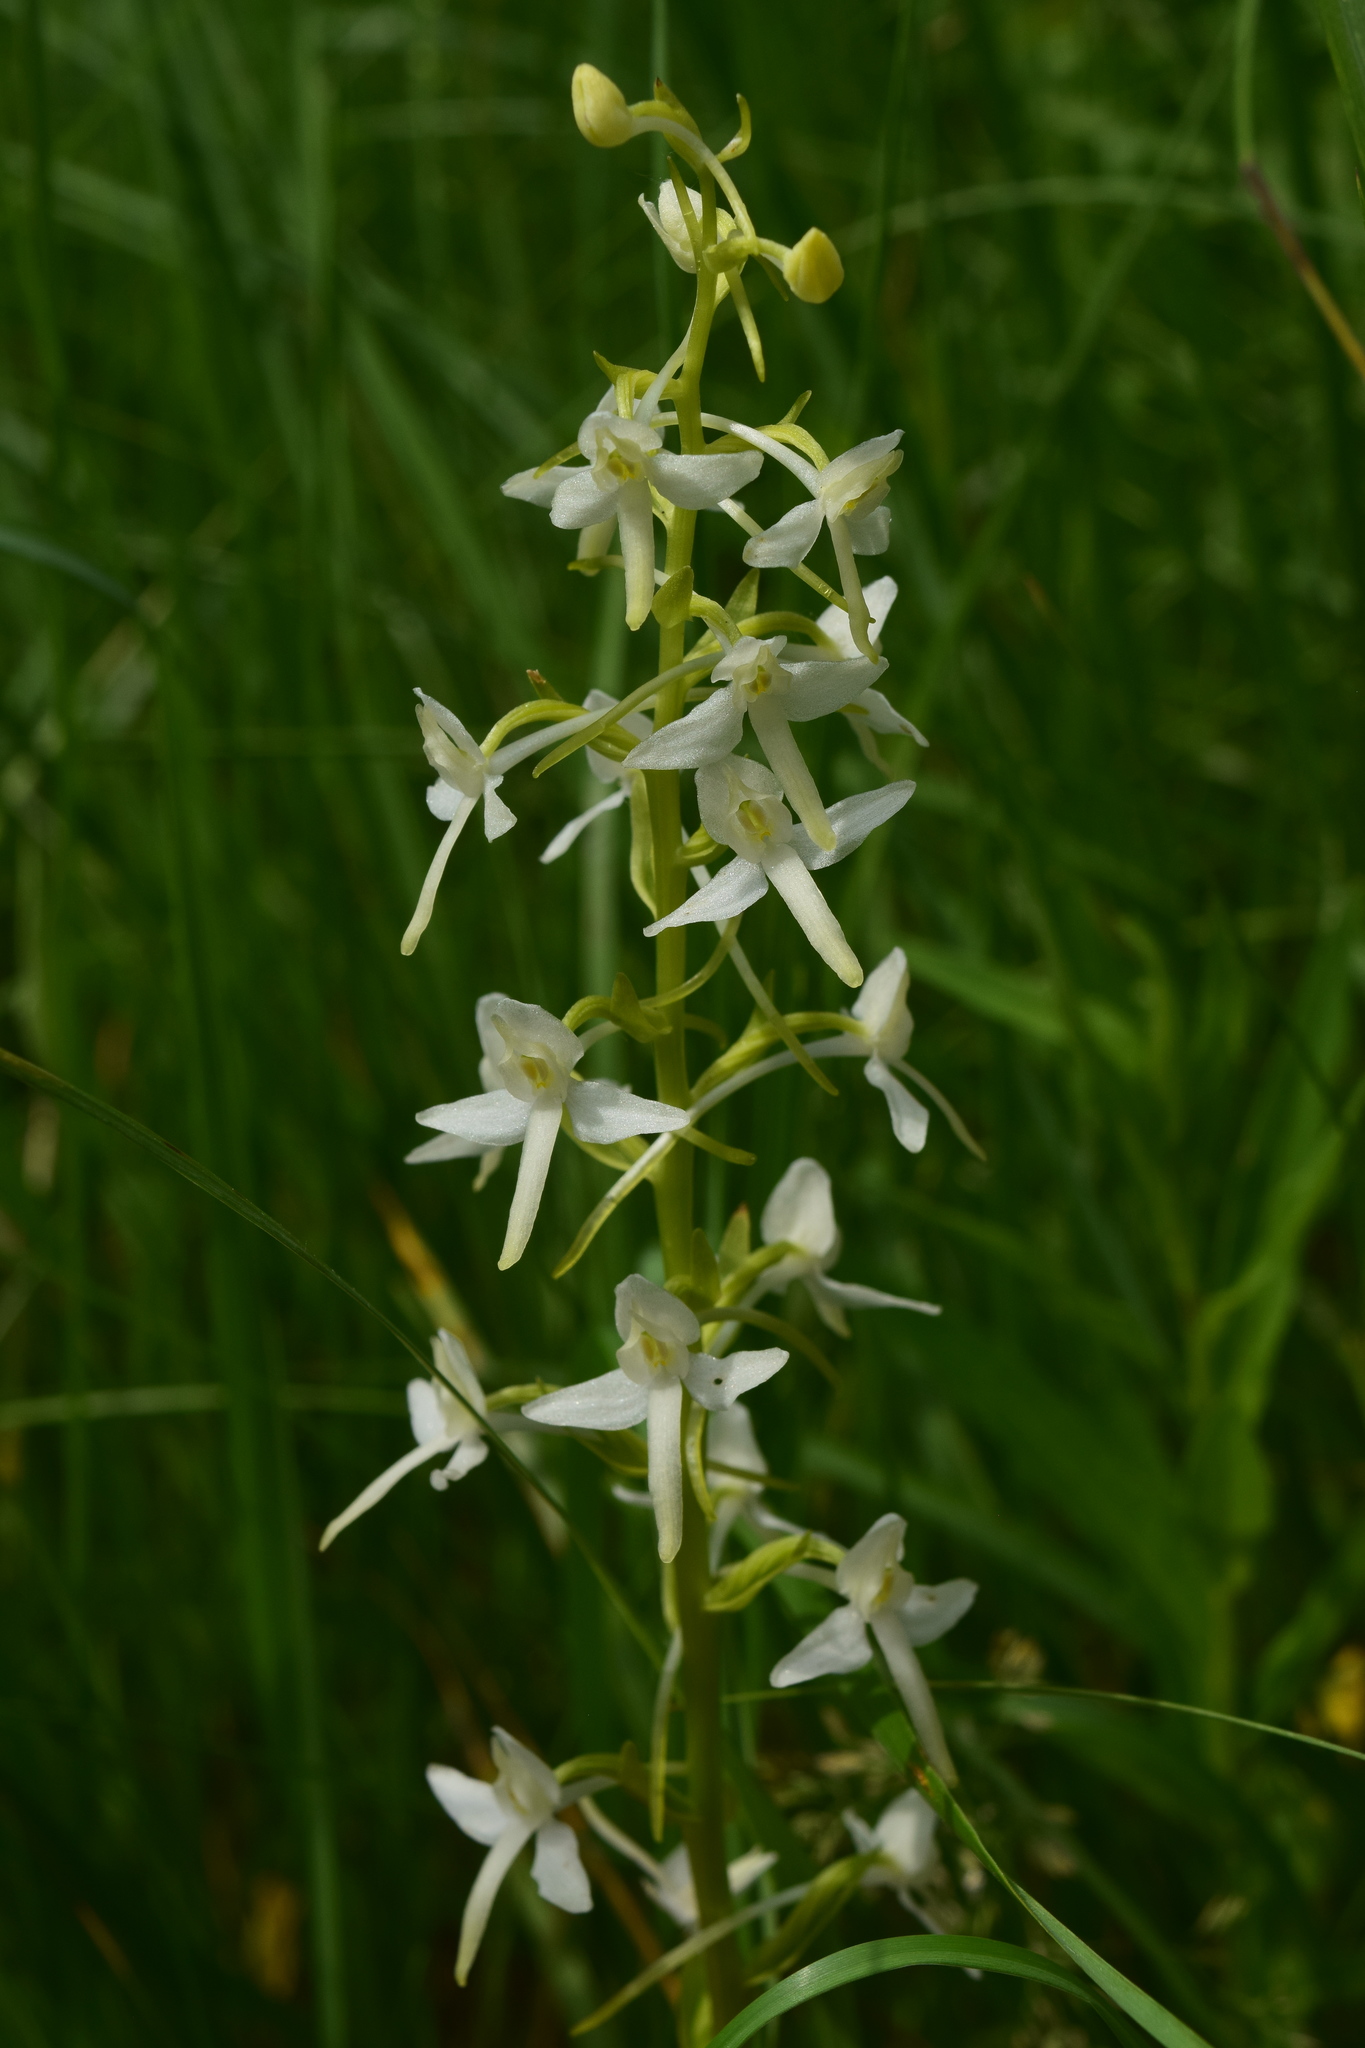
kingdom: Plantae
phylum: Tracheophyta
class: Liliopsida
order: Asparagales
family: Orchidaceae
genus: Platanthera
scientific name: Platanthera bifolia
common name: Lesser butterfly-orchid
